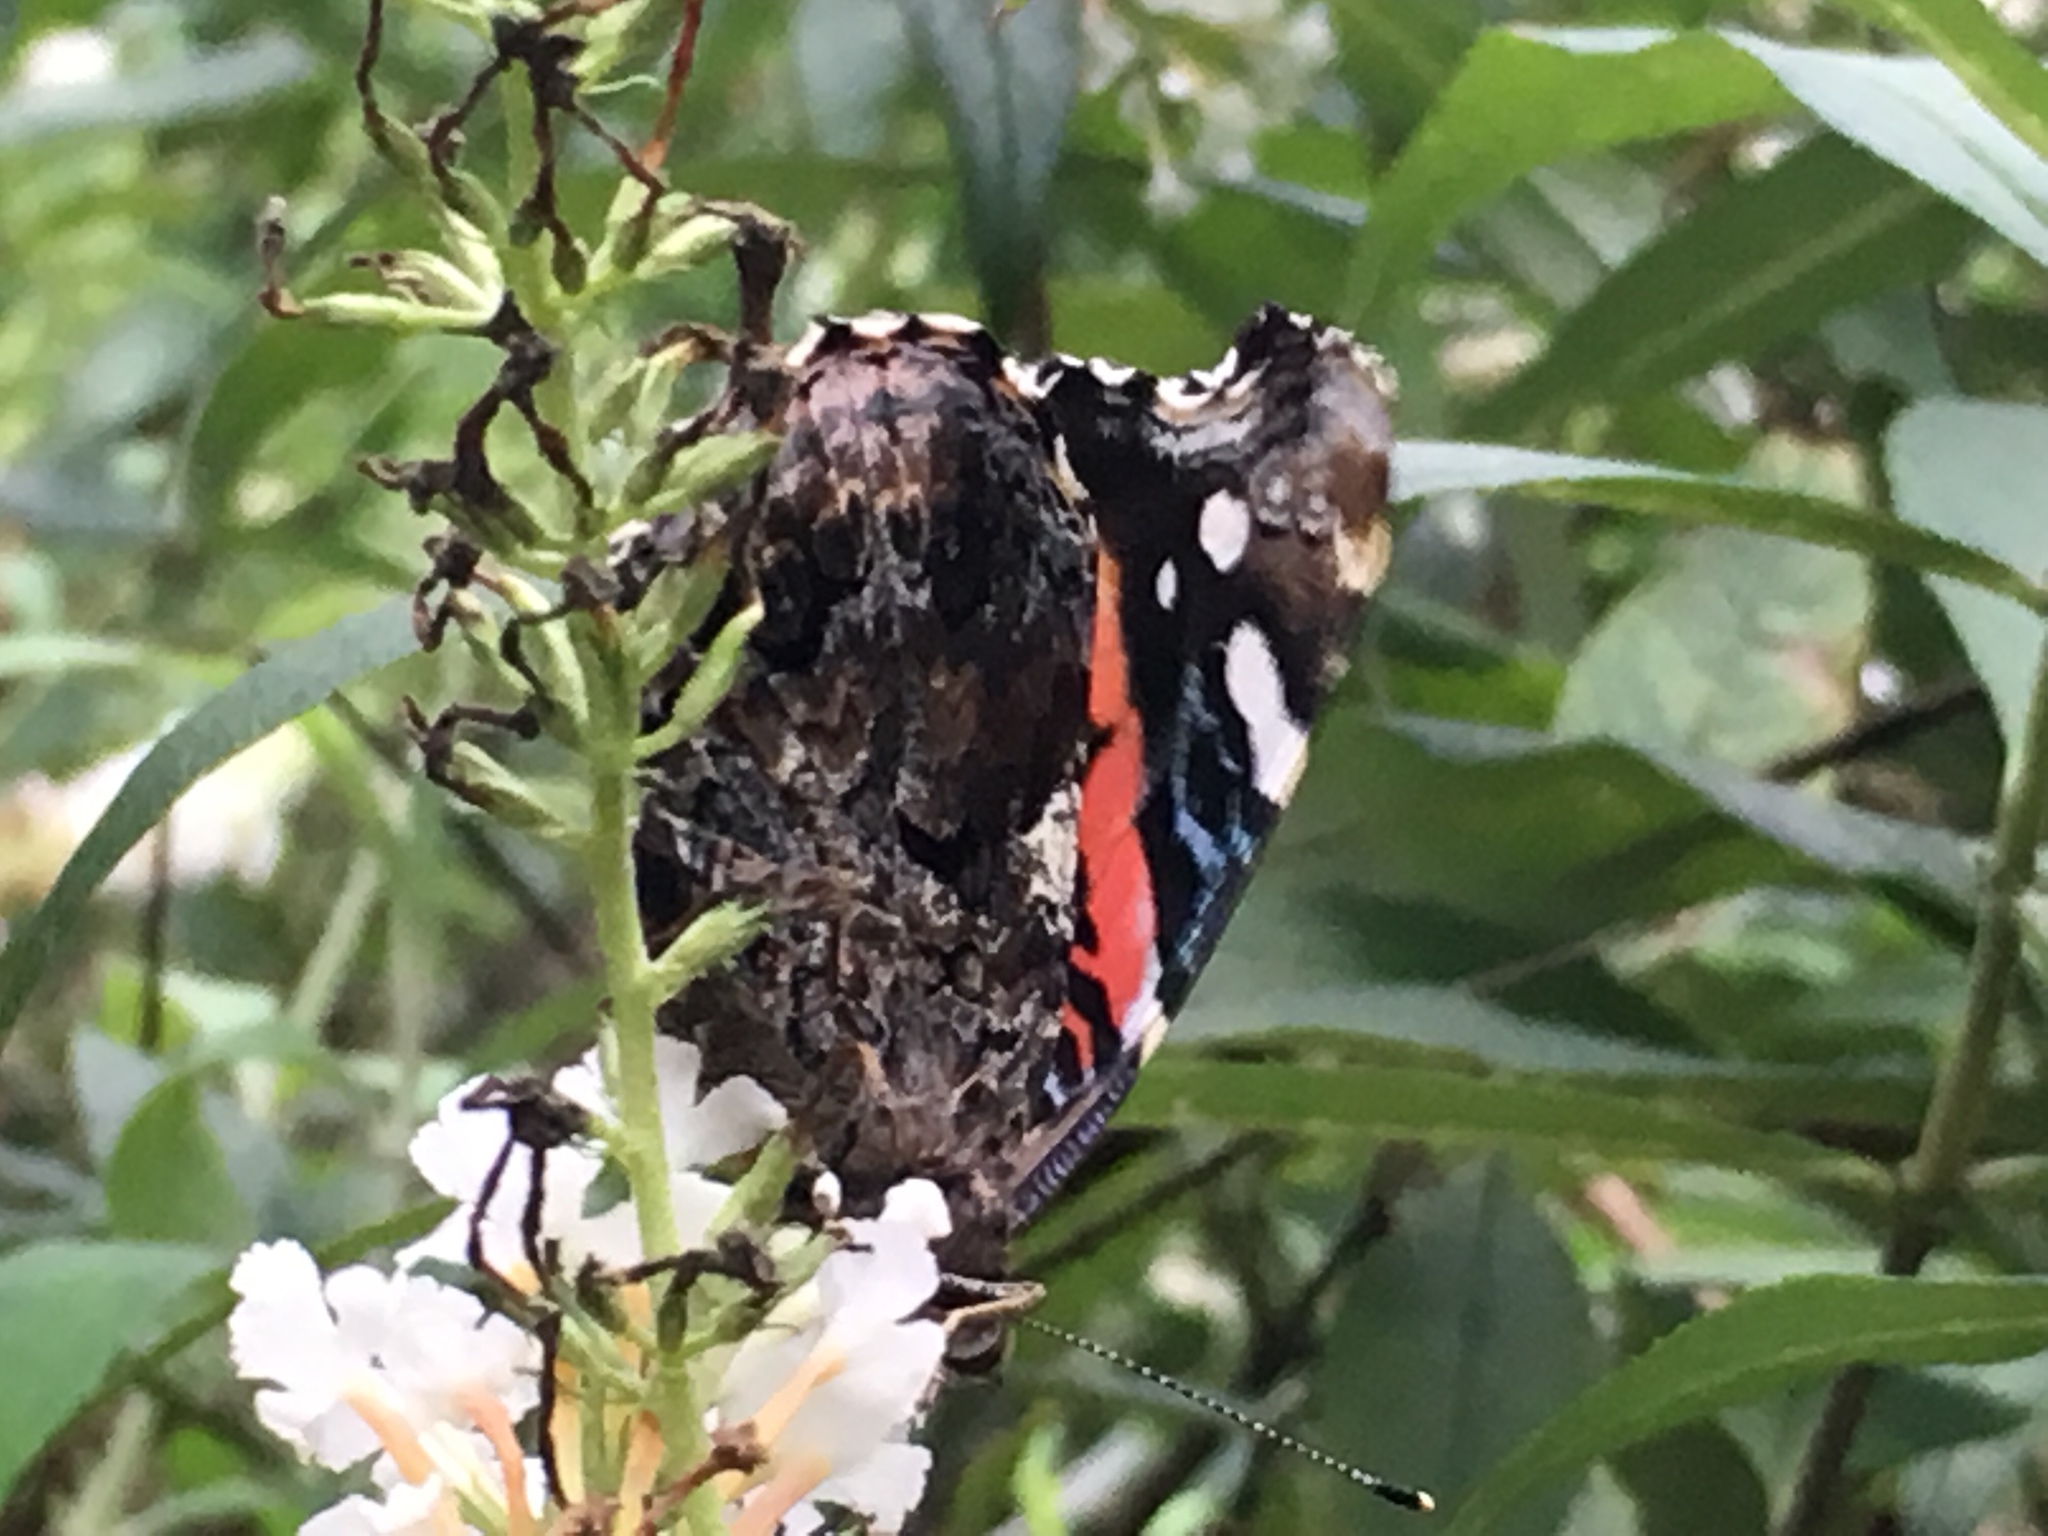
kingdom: Animalia
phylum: Arthropoda
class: Insecta
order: Lepidoptera
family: Nymphalidae
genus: Vanessa
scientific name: Vanessa atalanta
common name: Red admiral
